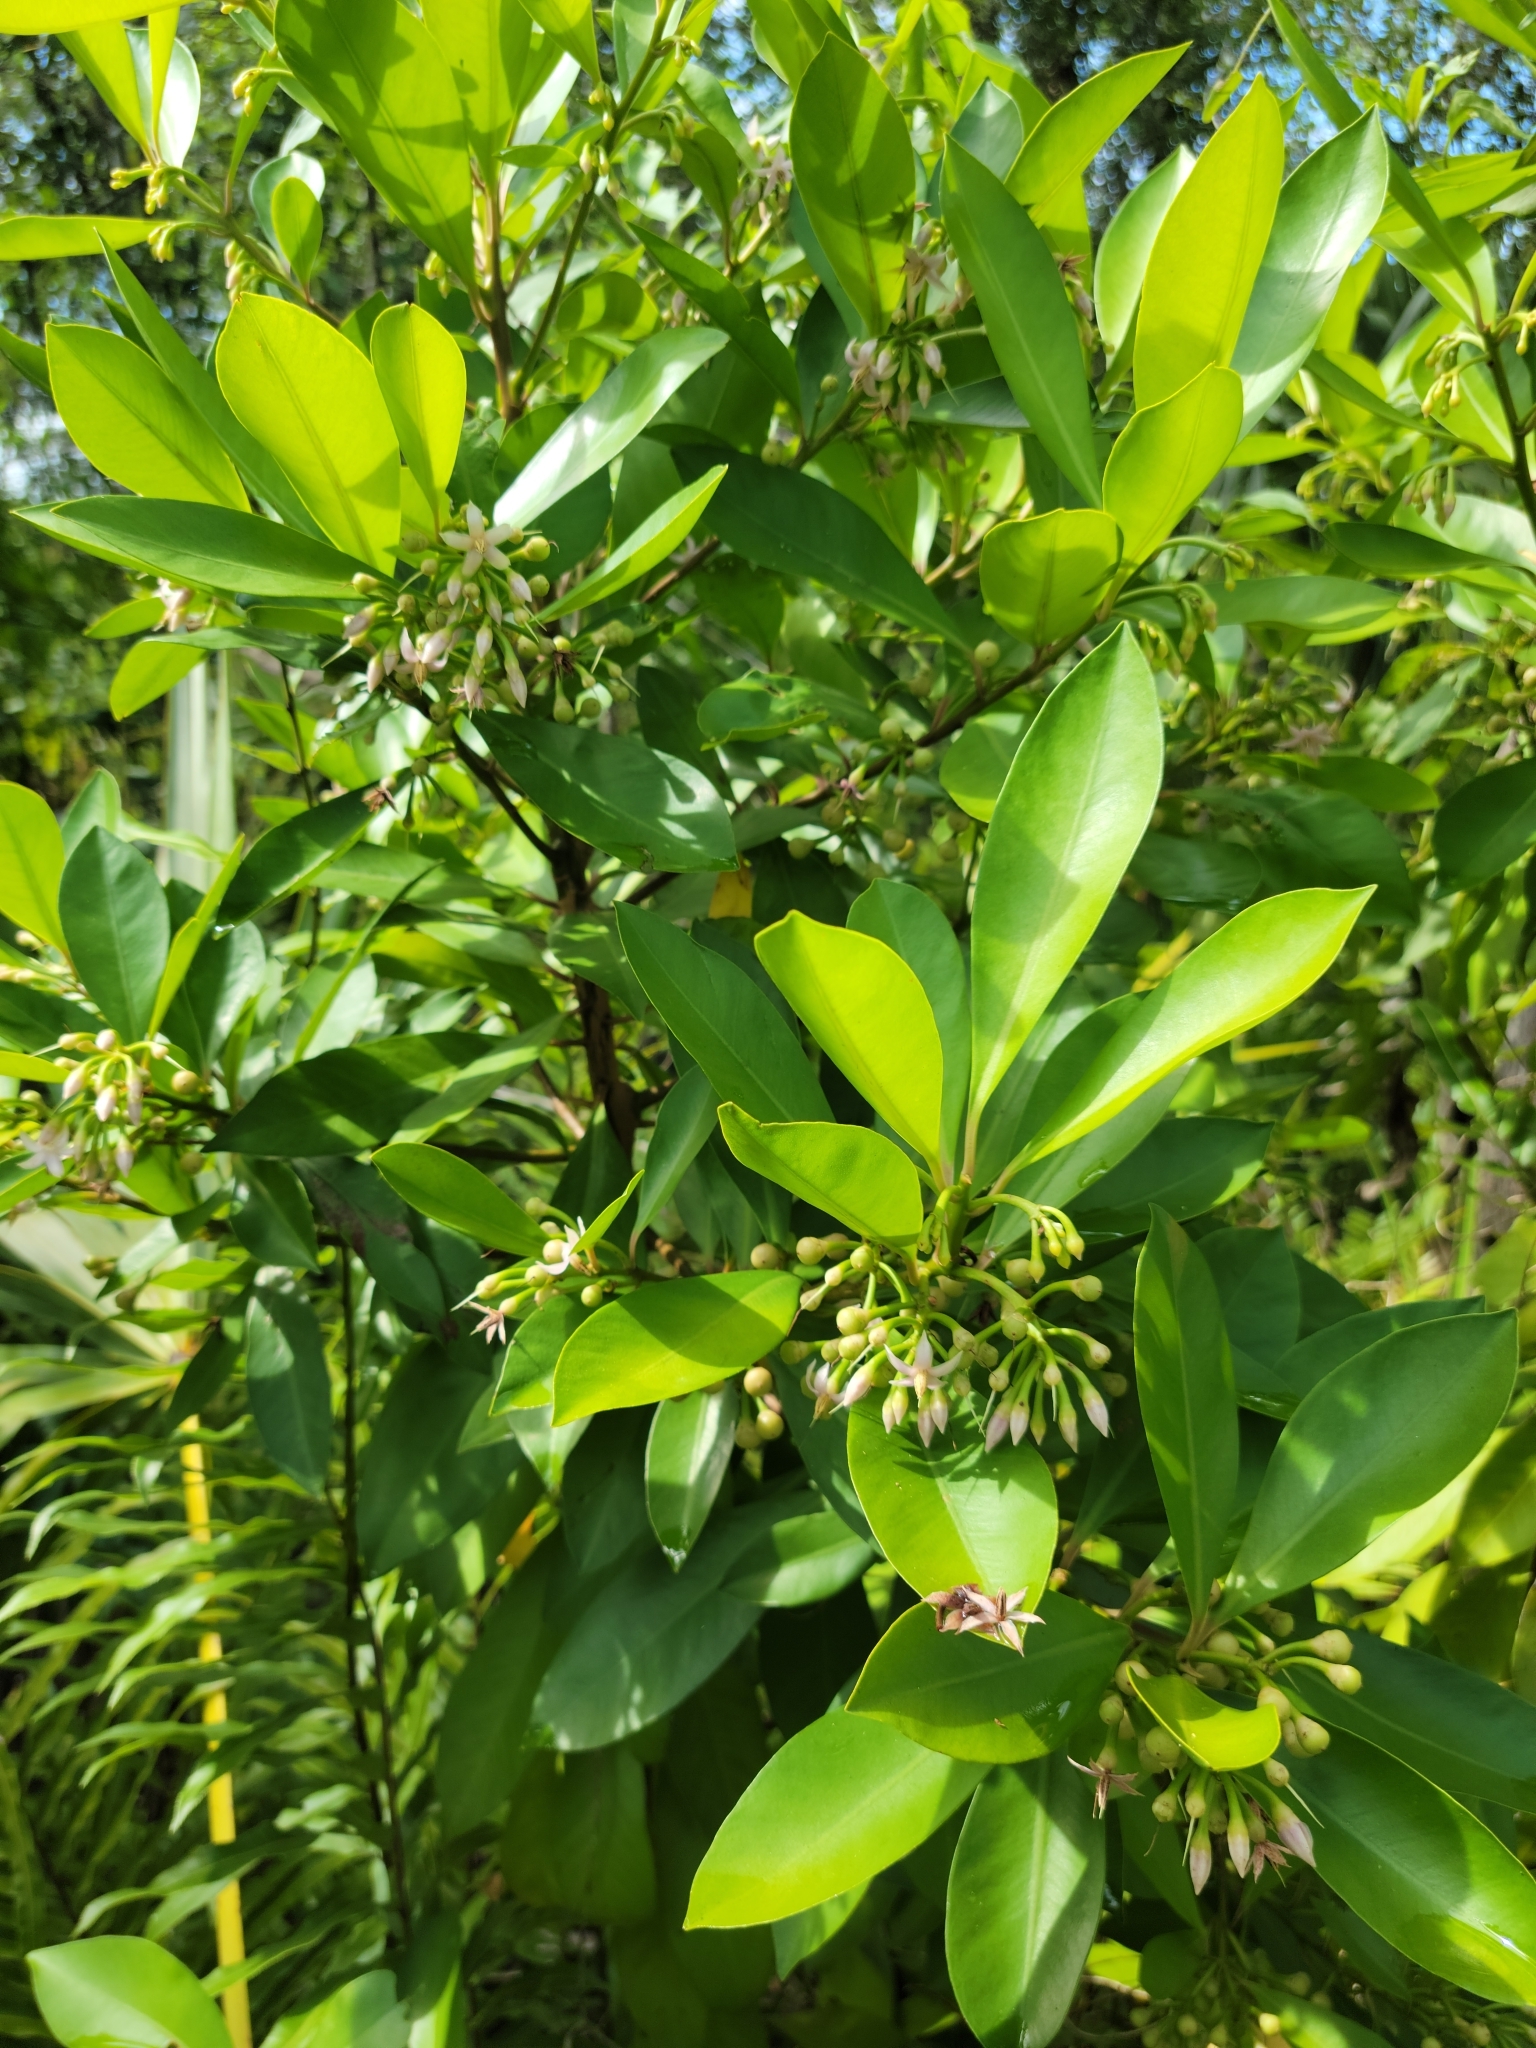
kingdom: Plantae
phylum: Tracheophyta
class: Magnoliopsida
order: Ericales
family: Primulaceae
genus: Ardisia
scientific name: Ardisia elliptica
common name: Shoebutton
